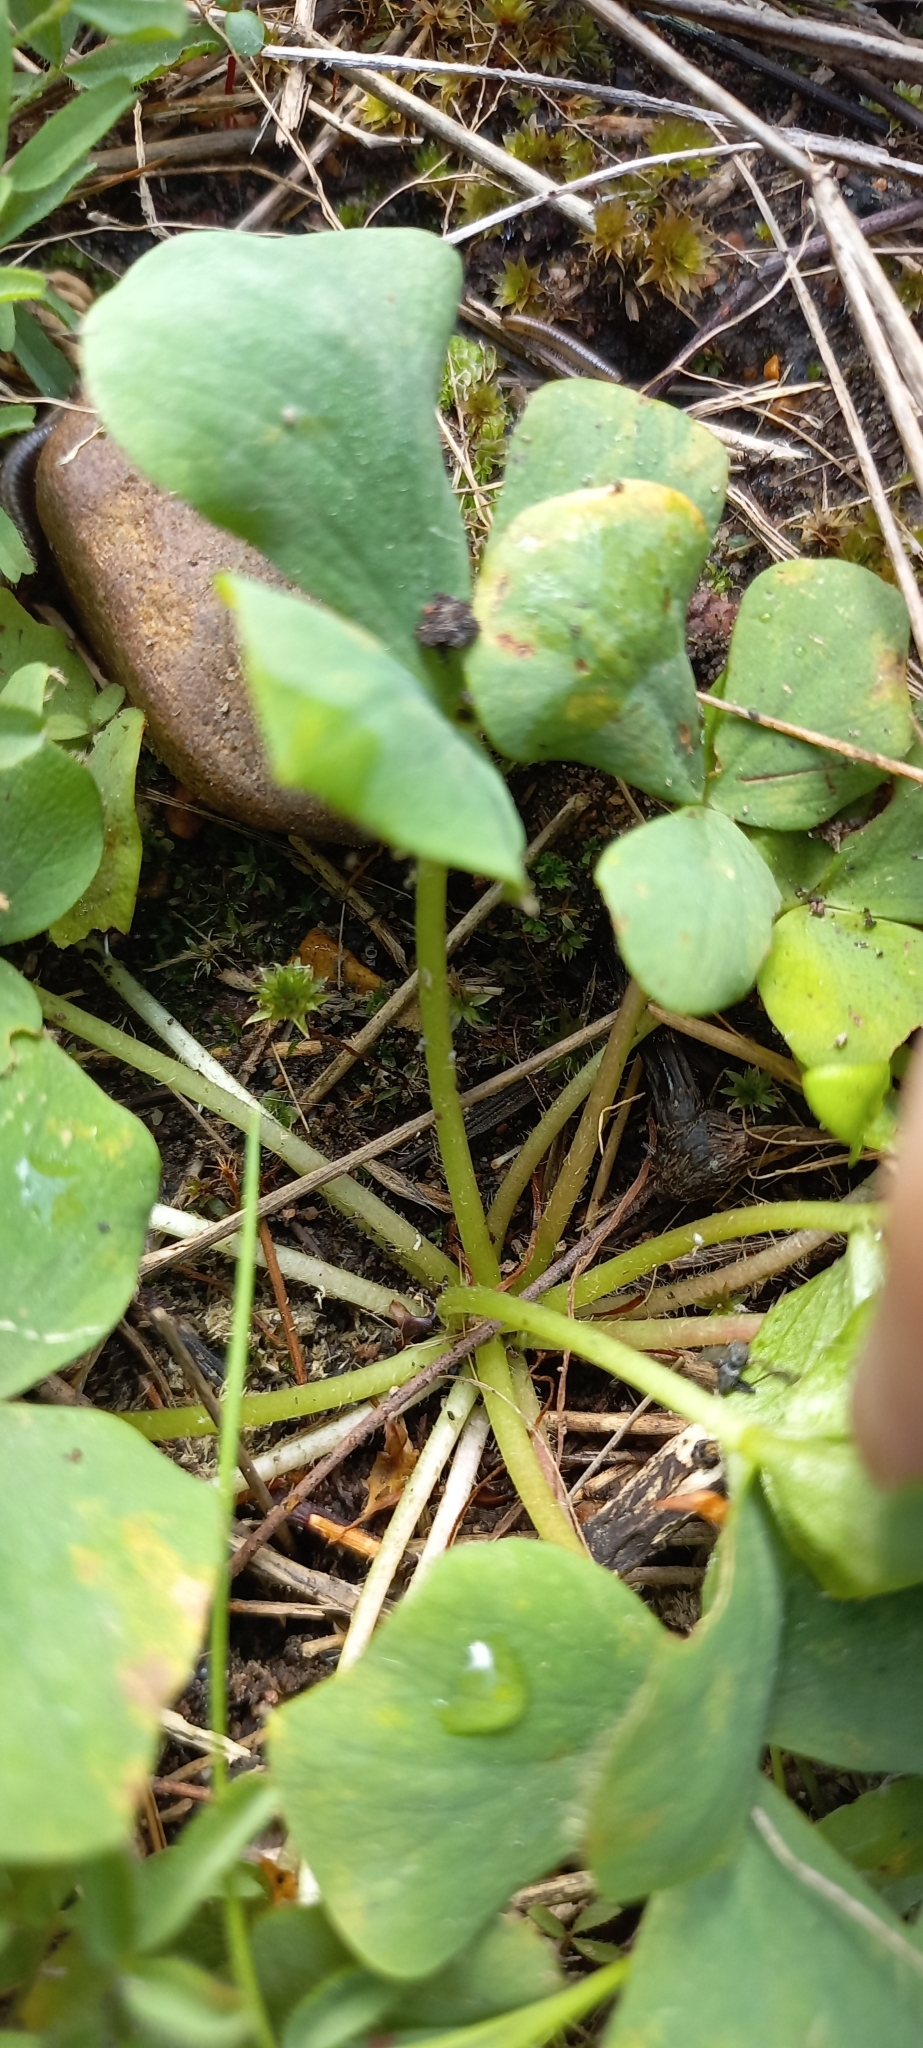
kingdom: Plantae
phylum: Tracheophyta
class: Magnoliopsida
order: Oxalidales
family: Oxalidaceae
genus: Oxalis
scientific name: Oxalis purpurea
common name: Purple woodsorrel
